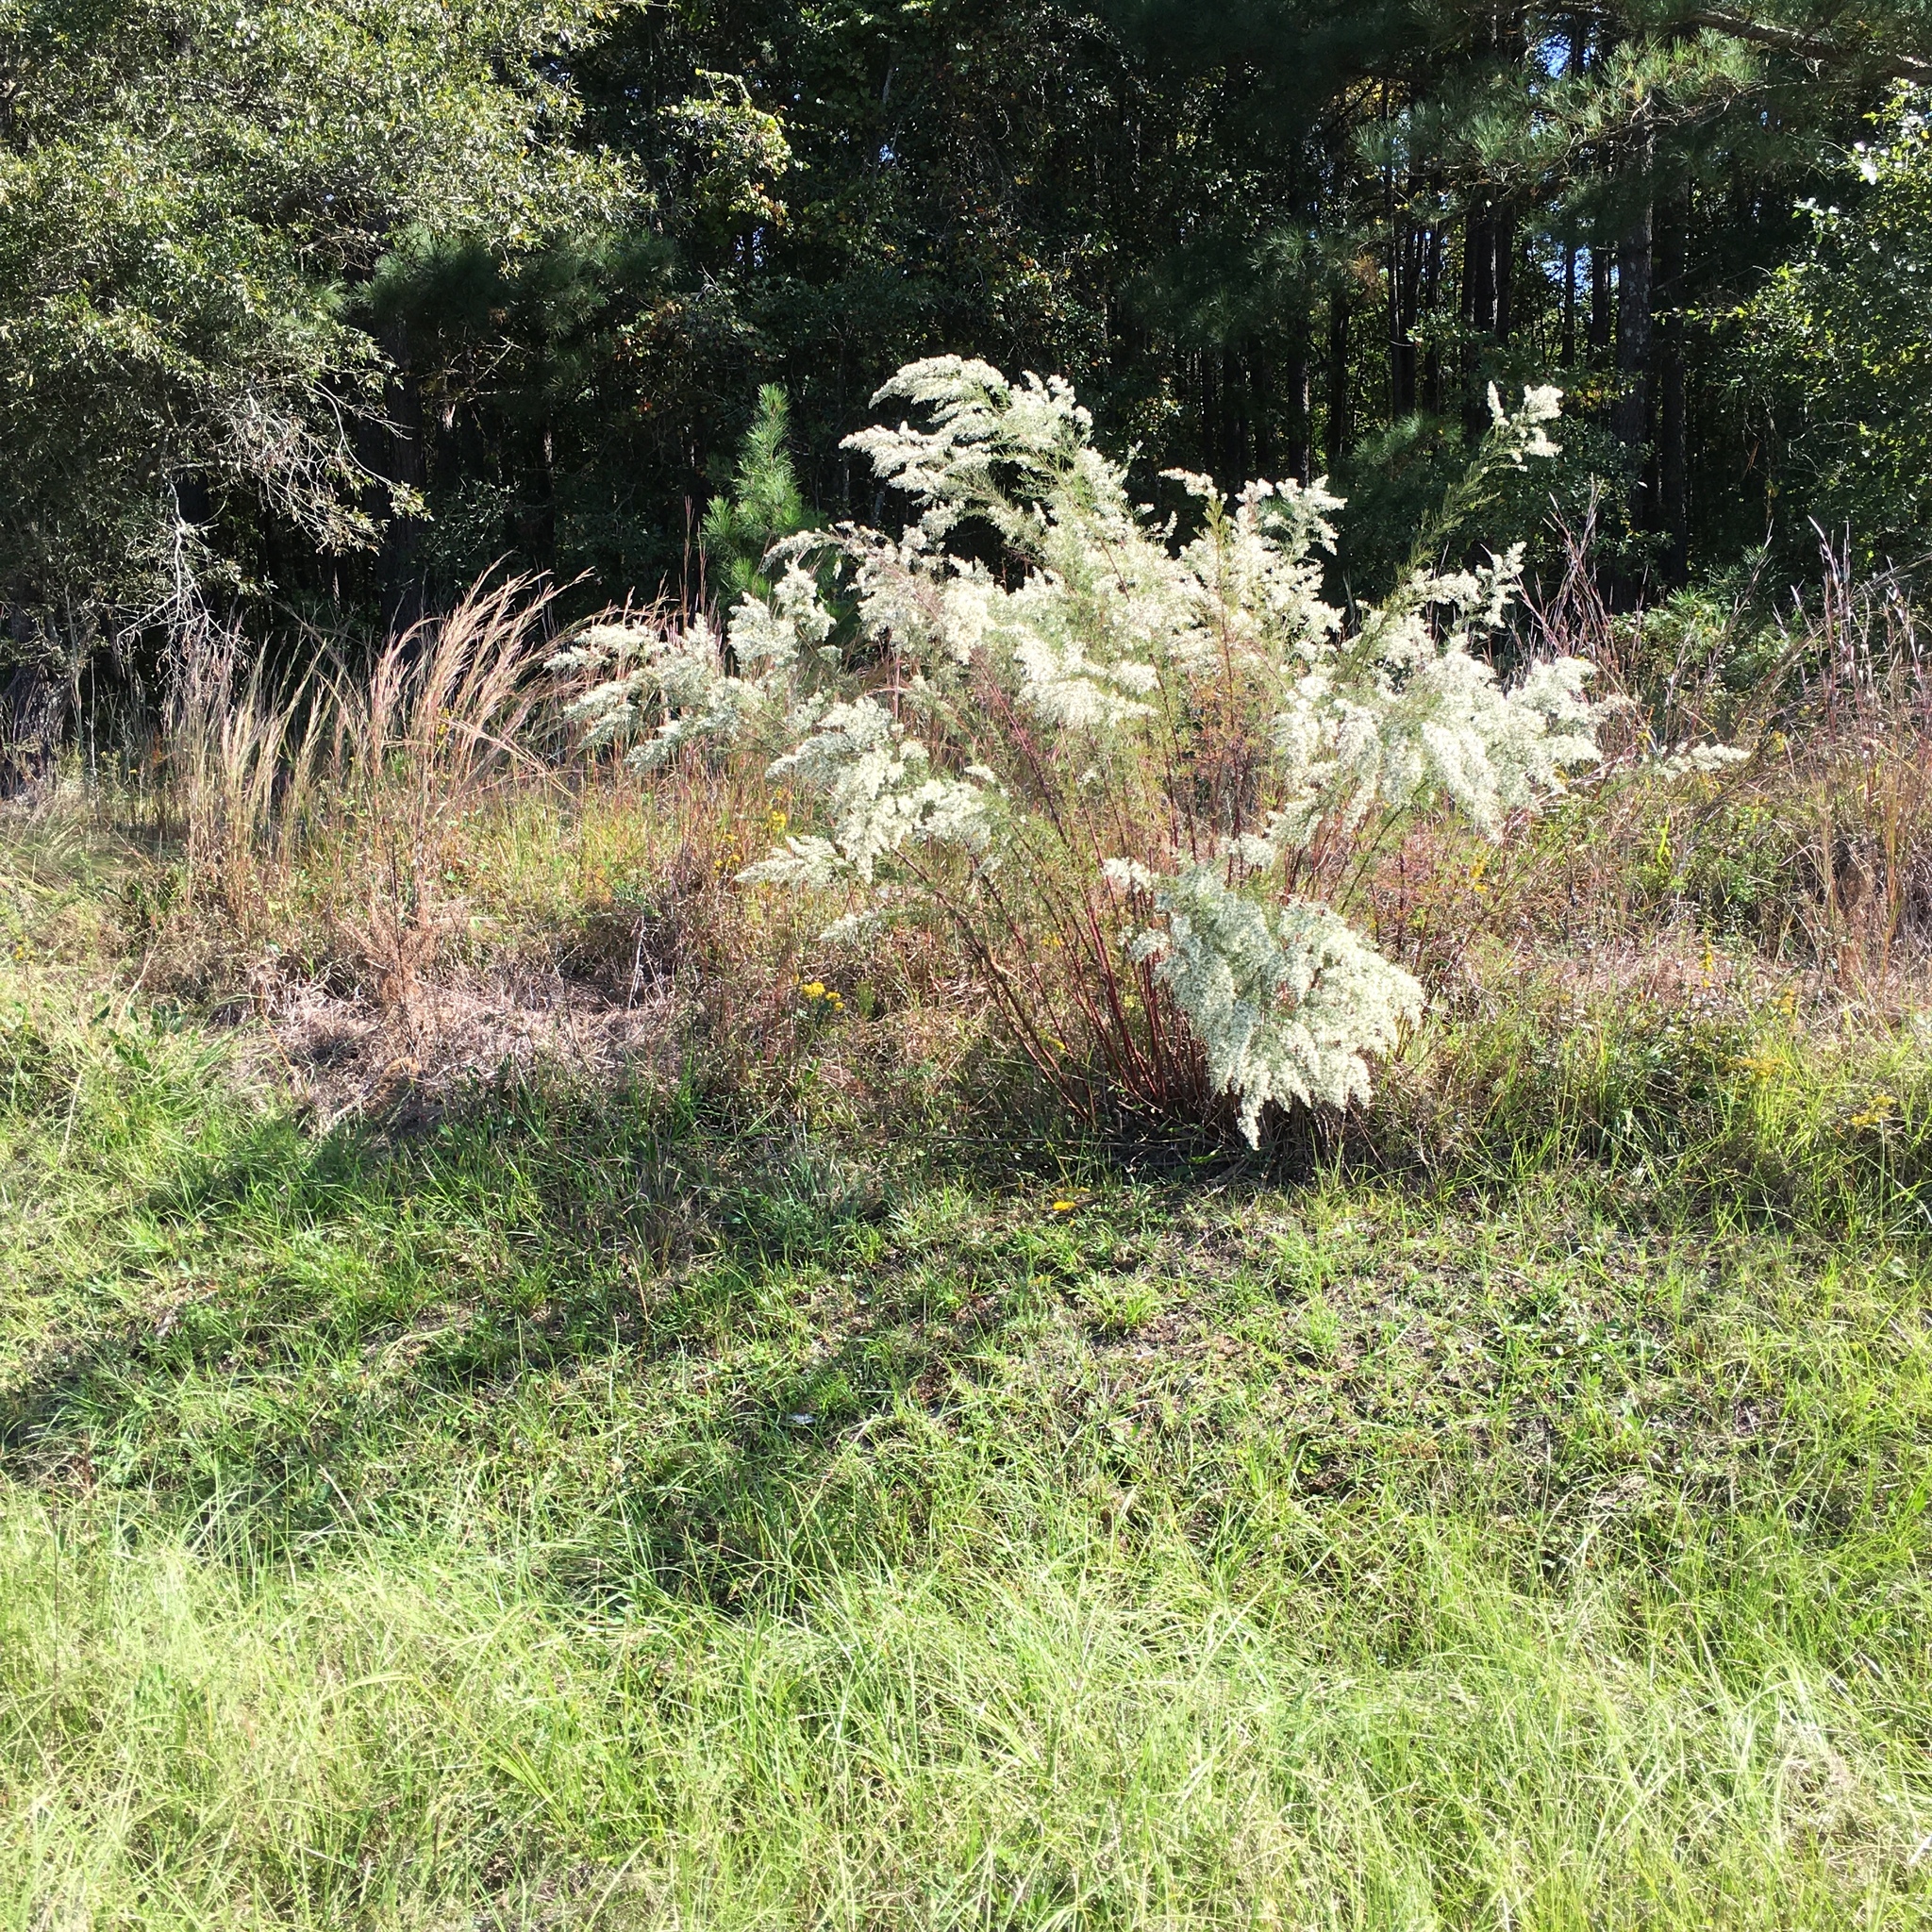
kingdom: Plantae
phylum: Tracheophyta
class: Magnoliopsida
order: Asterales
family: Asteraceae
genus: Eupatorium
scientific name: Eupatorium compositifolium
